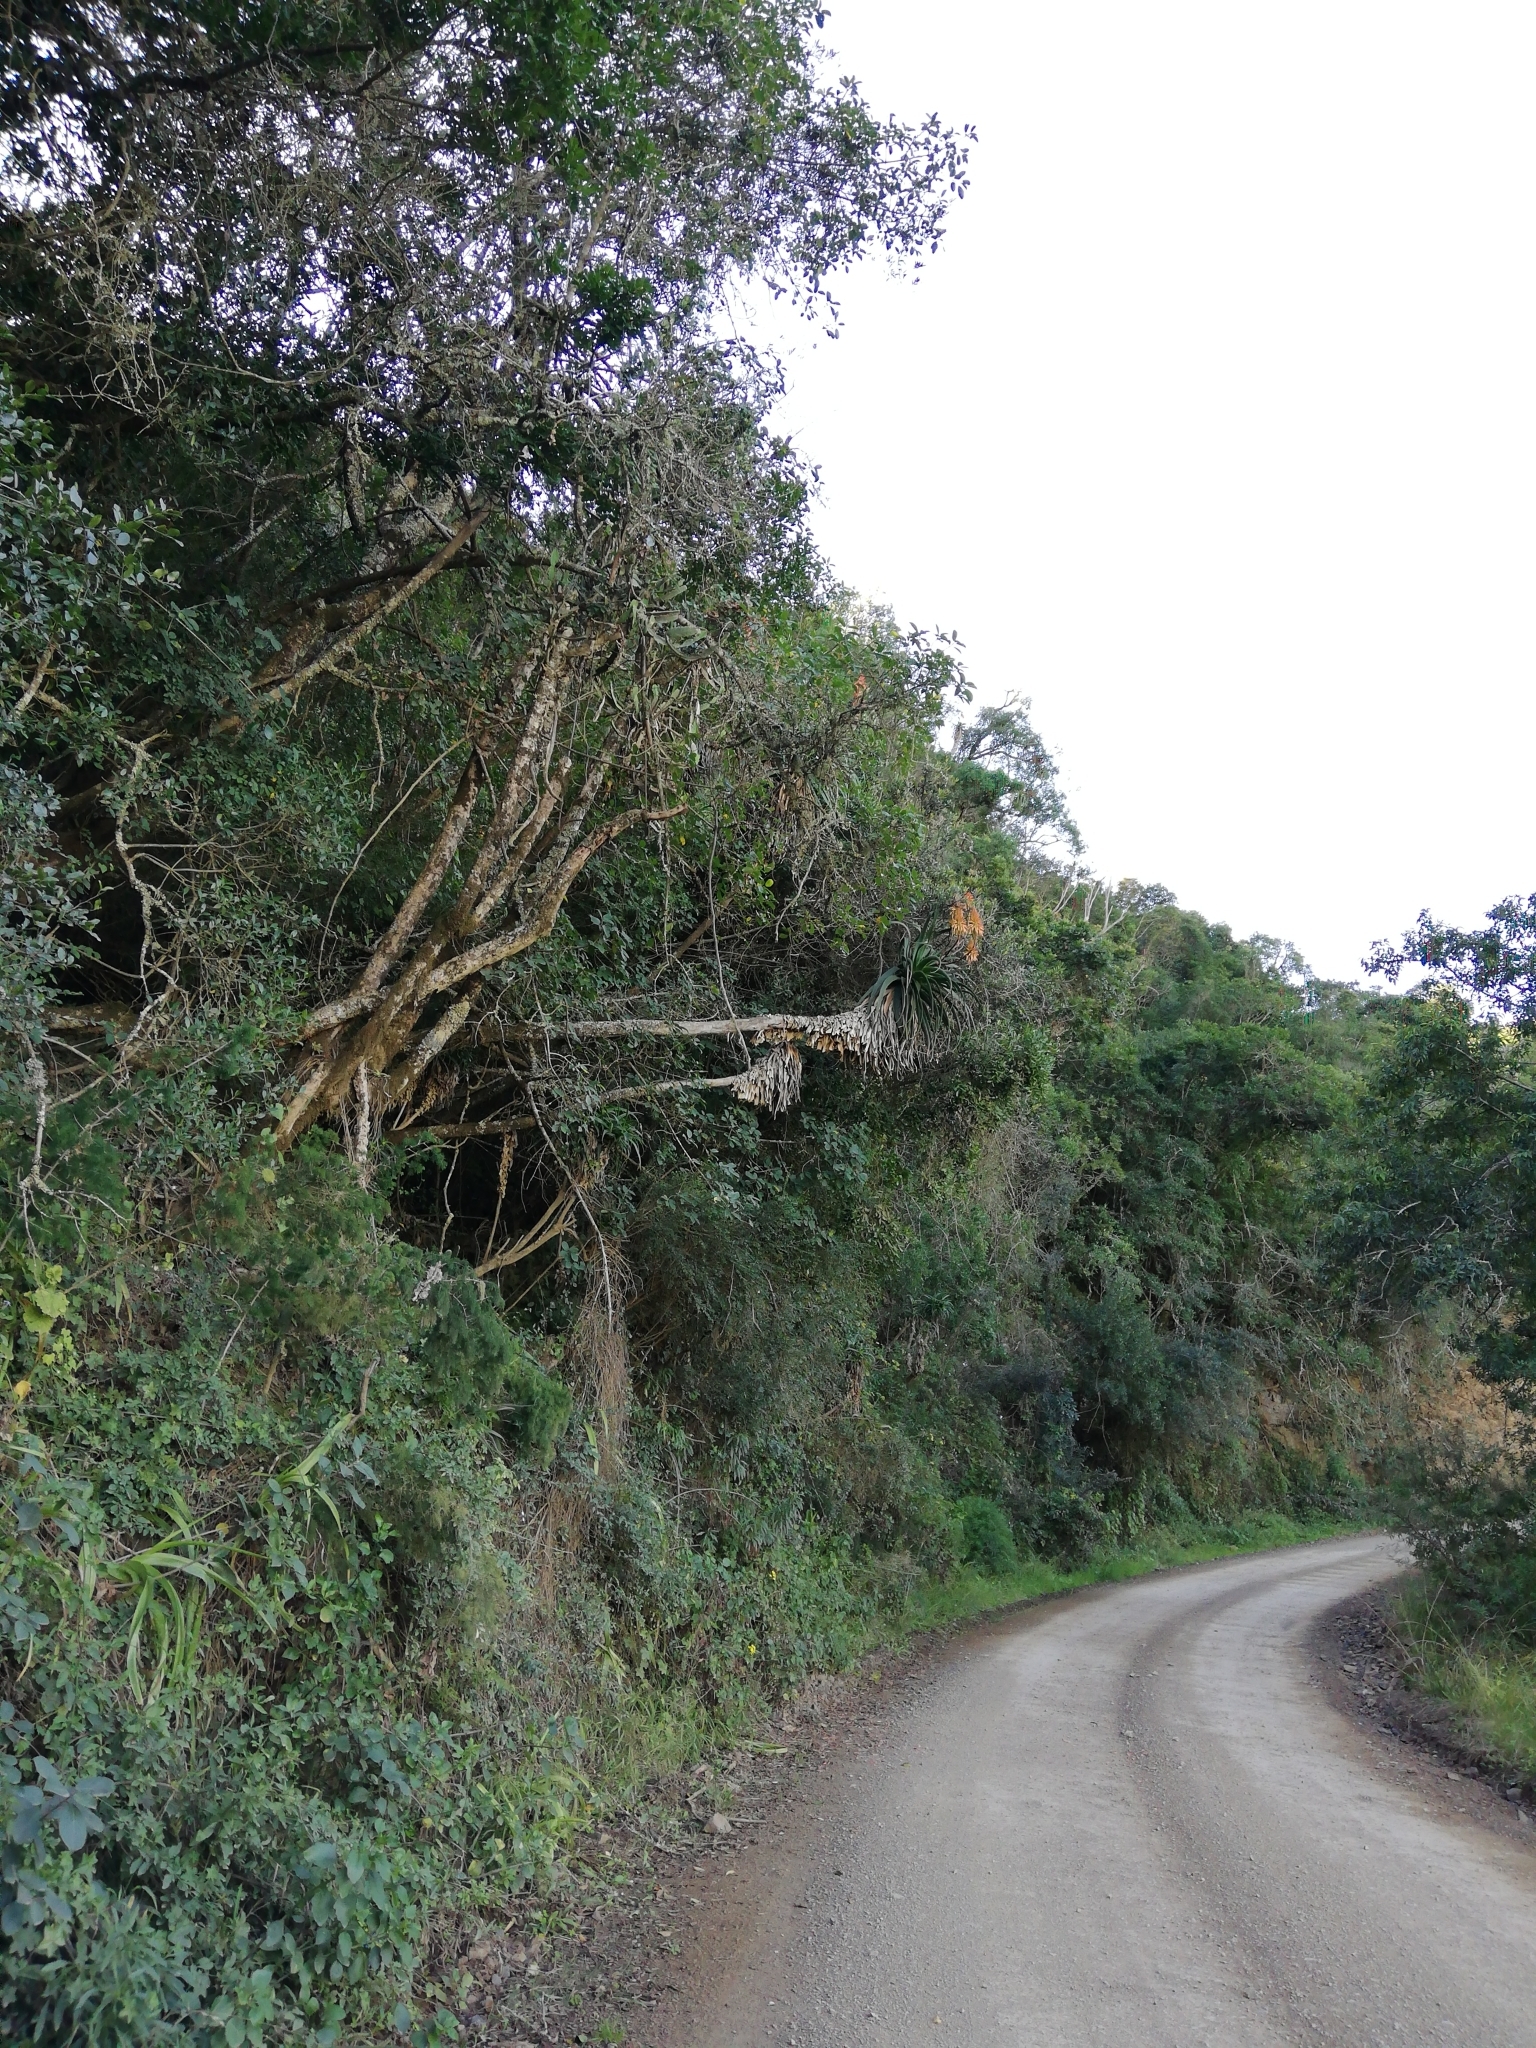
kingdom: Plantae
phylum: Tracheophyta
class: Liliopsida
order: Asparagales
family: Asphodelaceae
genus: Aloe
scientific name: Aloe pluridens
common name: French aloe
